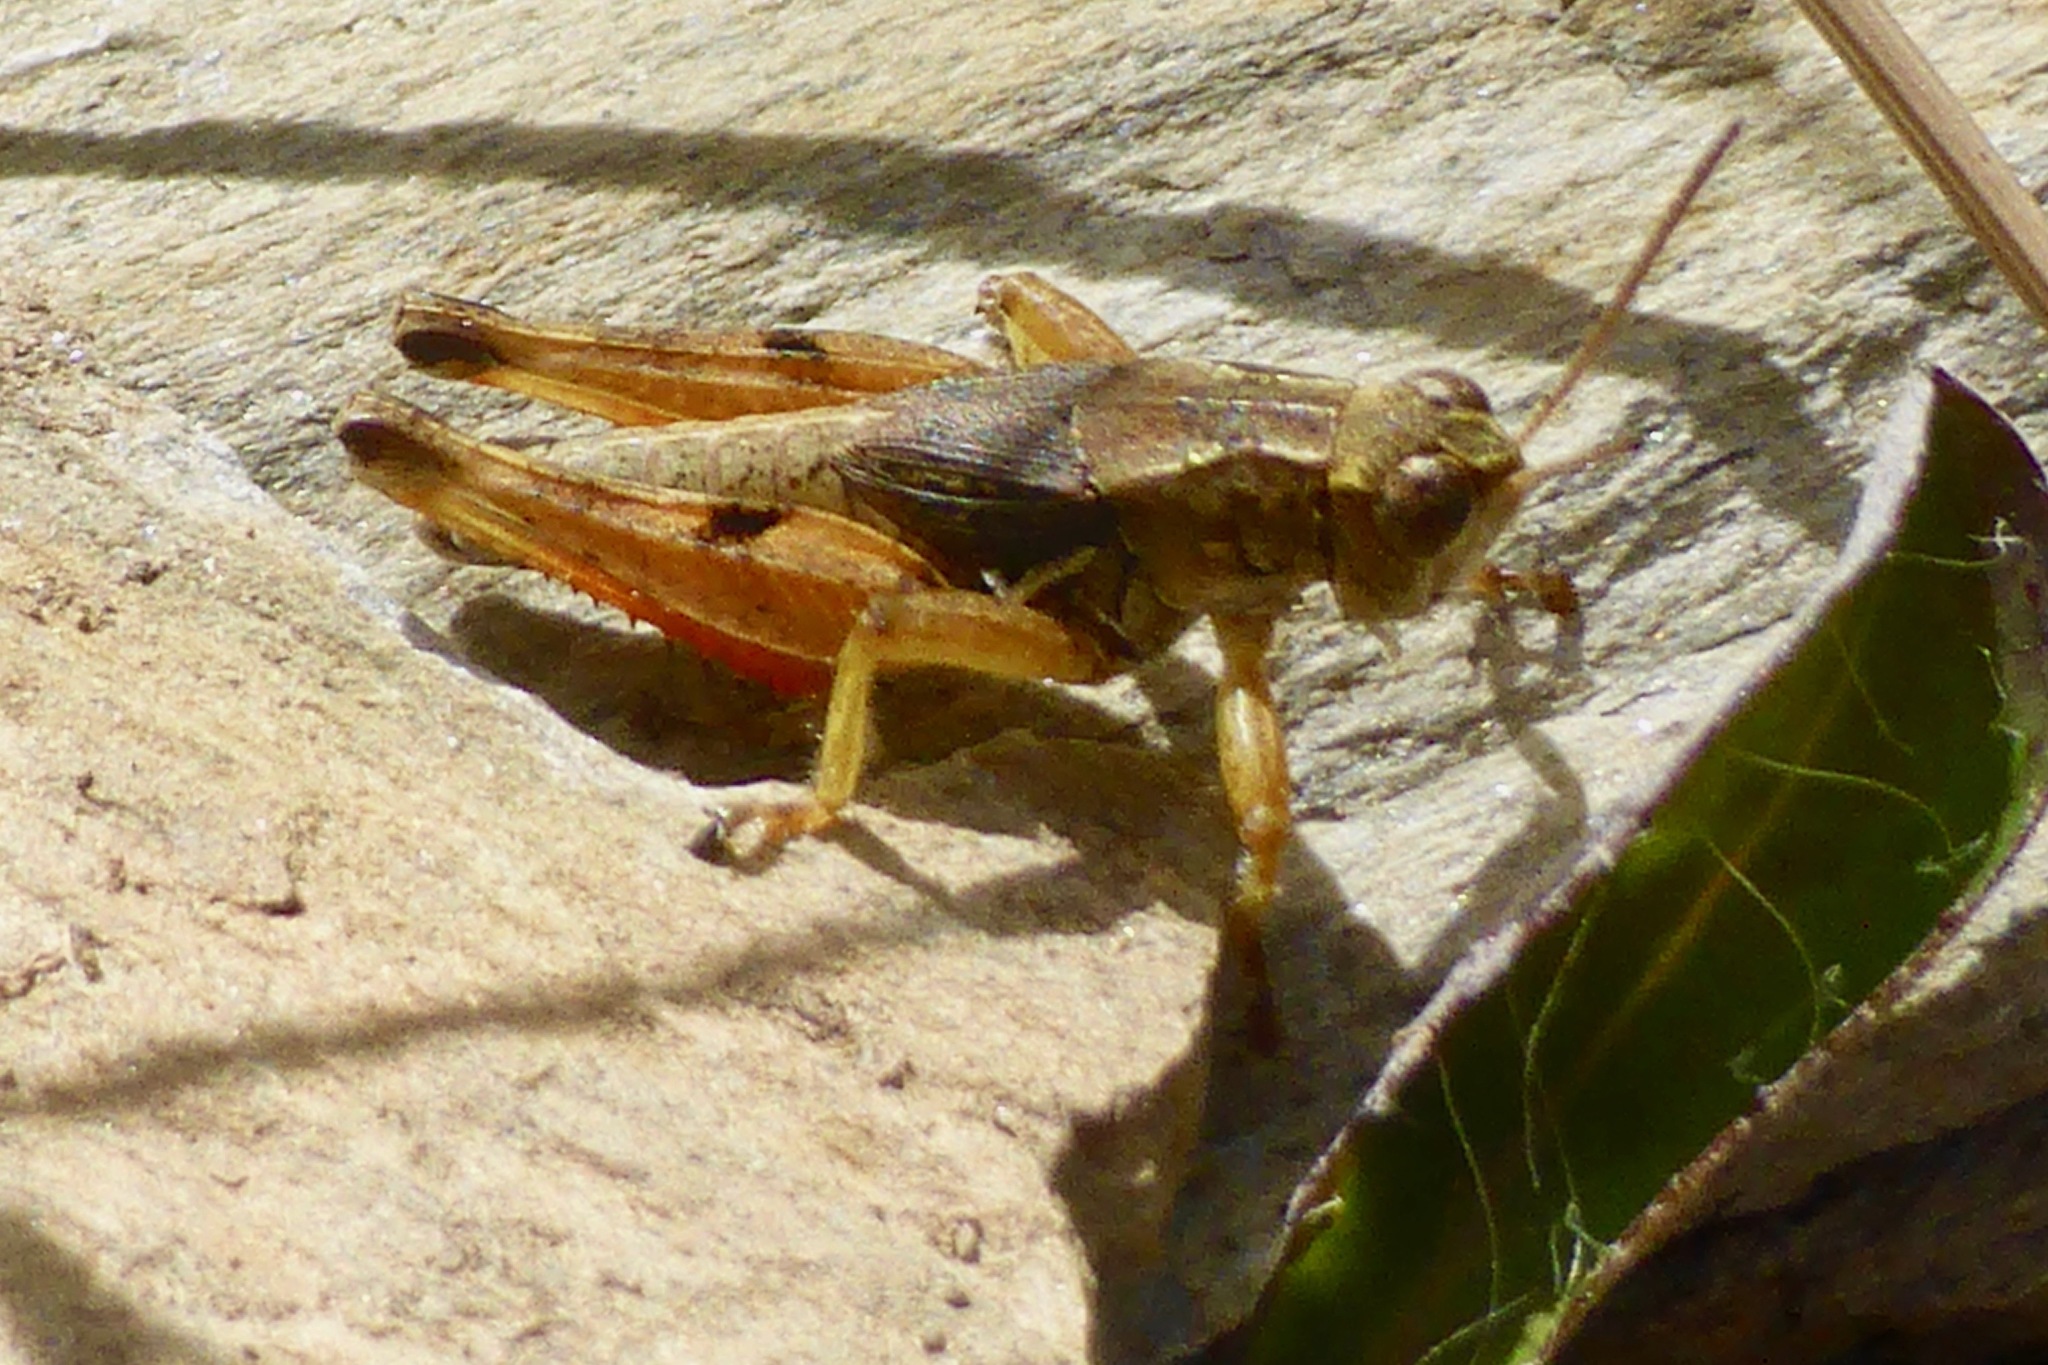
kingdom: Animalia
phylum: Arthropoda
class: Insecta
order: Orthoptera
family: Acrididae
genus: Phaulacridium
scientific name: Phaulacridium marginale
